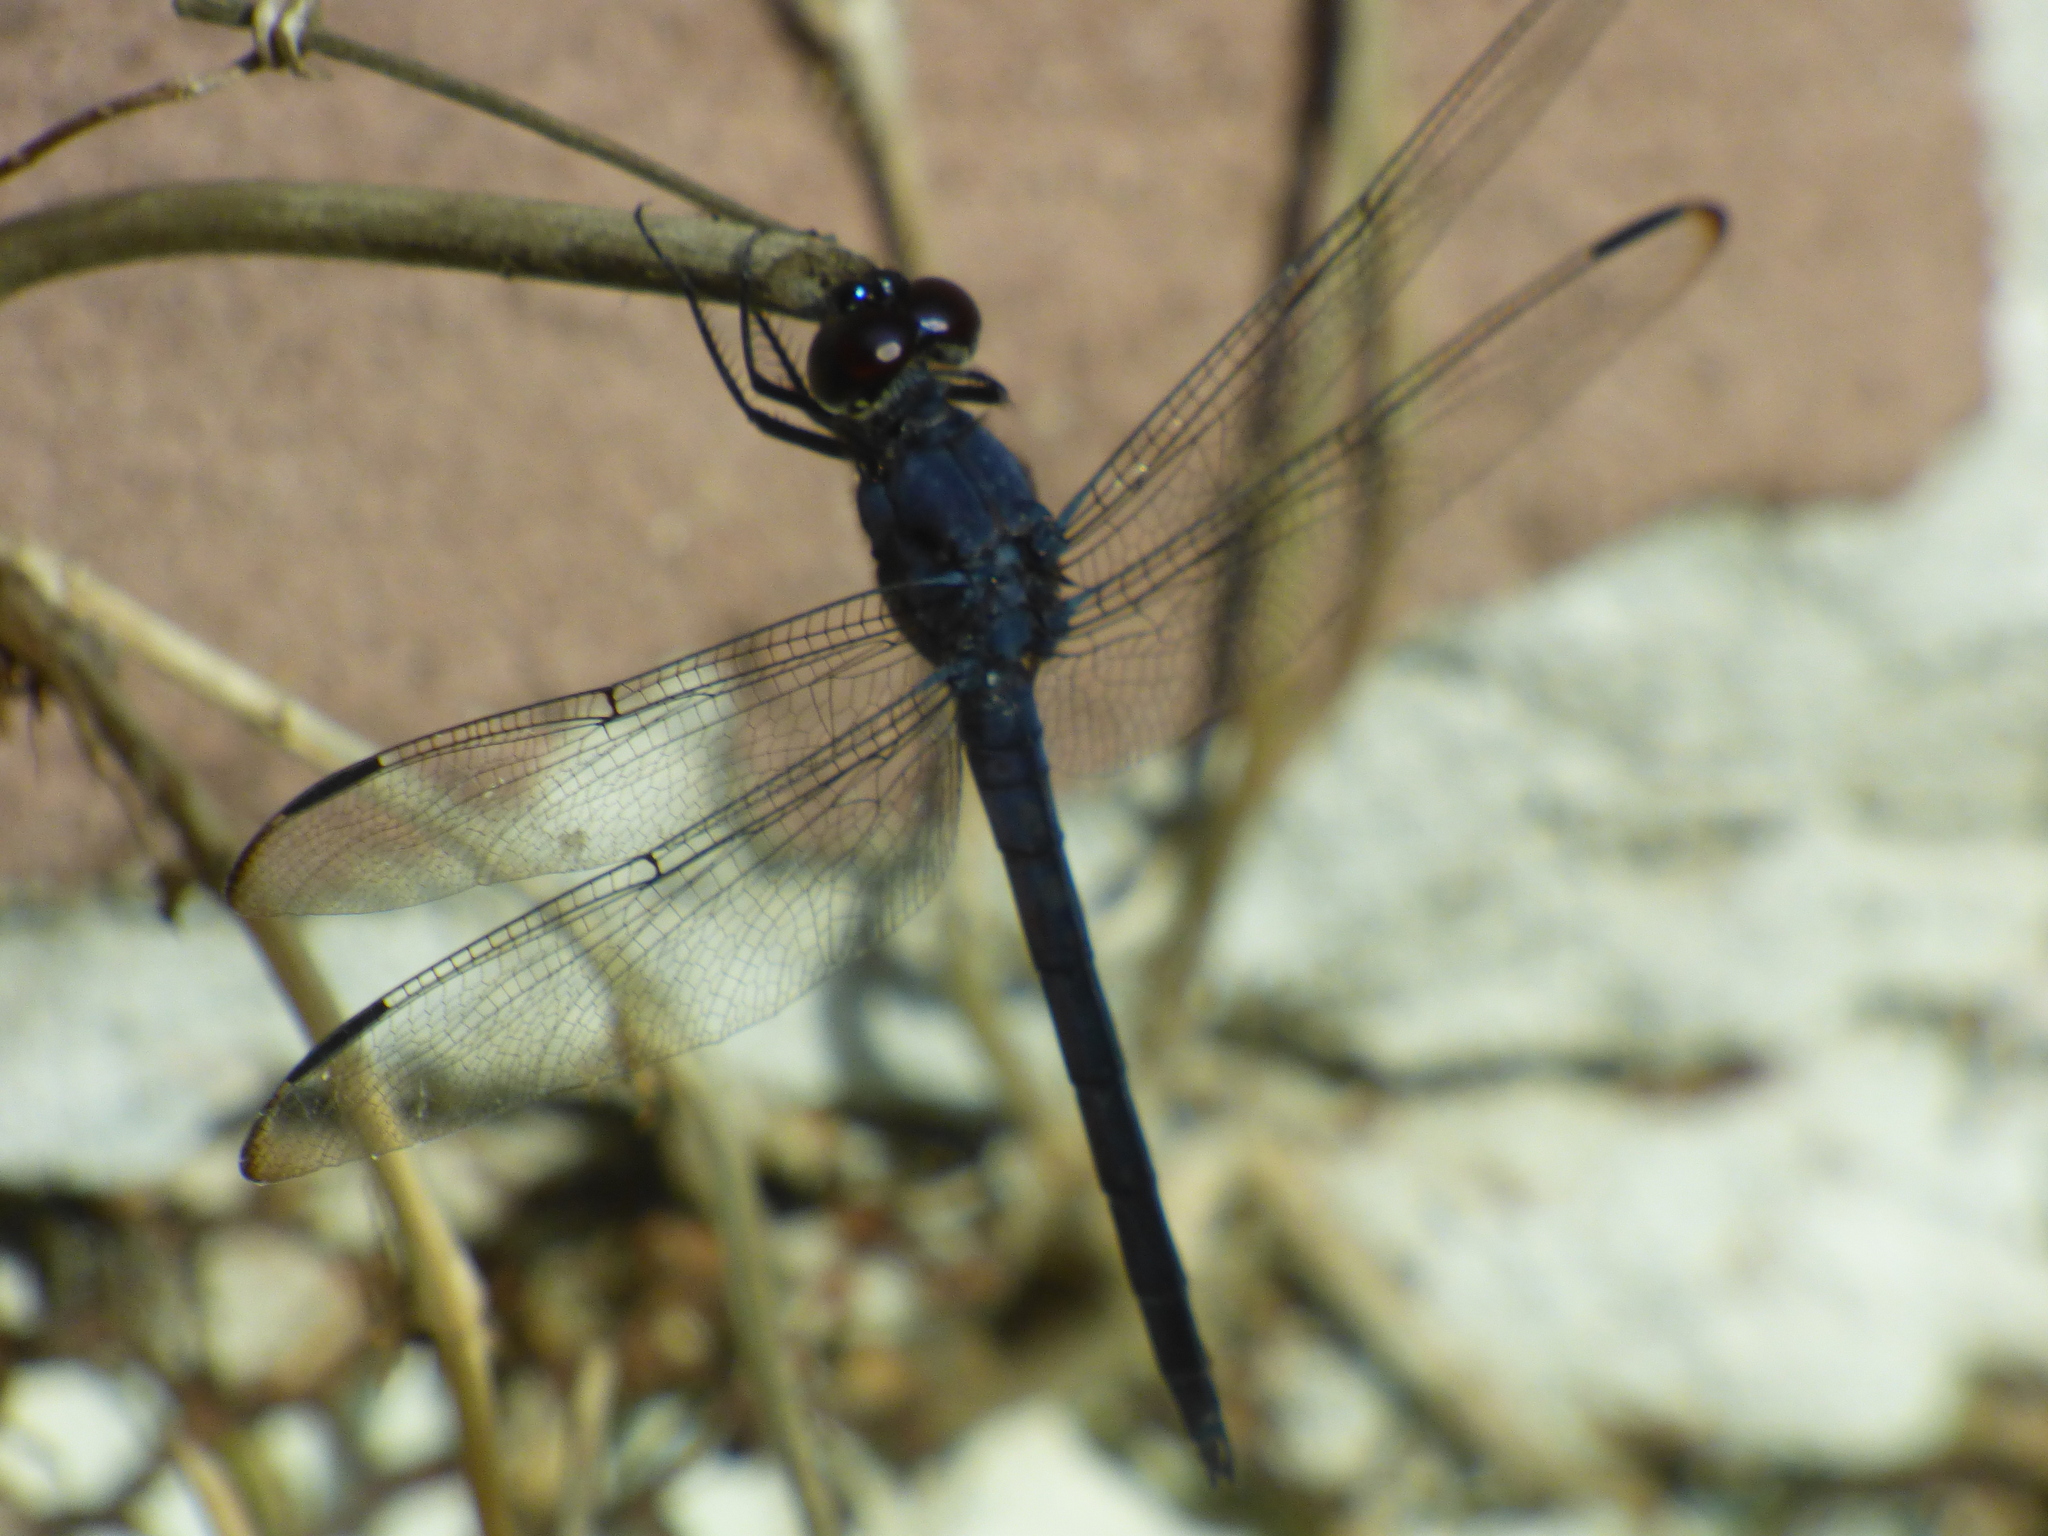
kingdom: Animalia
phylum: Arthropoda
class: Insecta
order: Odonata
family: Libellulidae
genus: Libellula
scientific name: Libellula incesta
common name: Slaty skimmer
